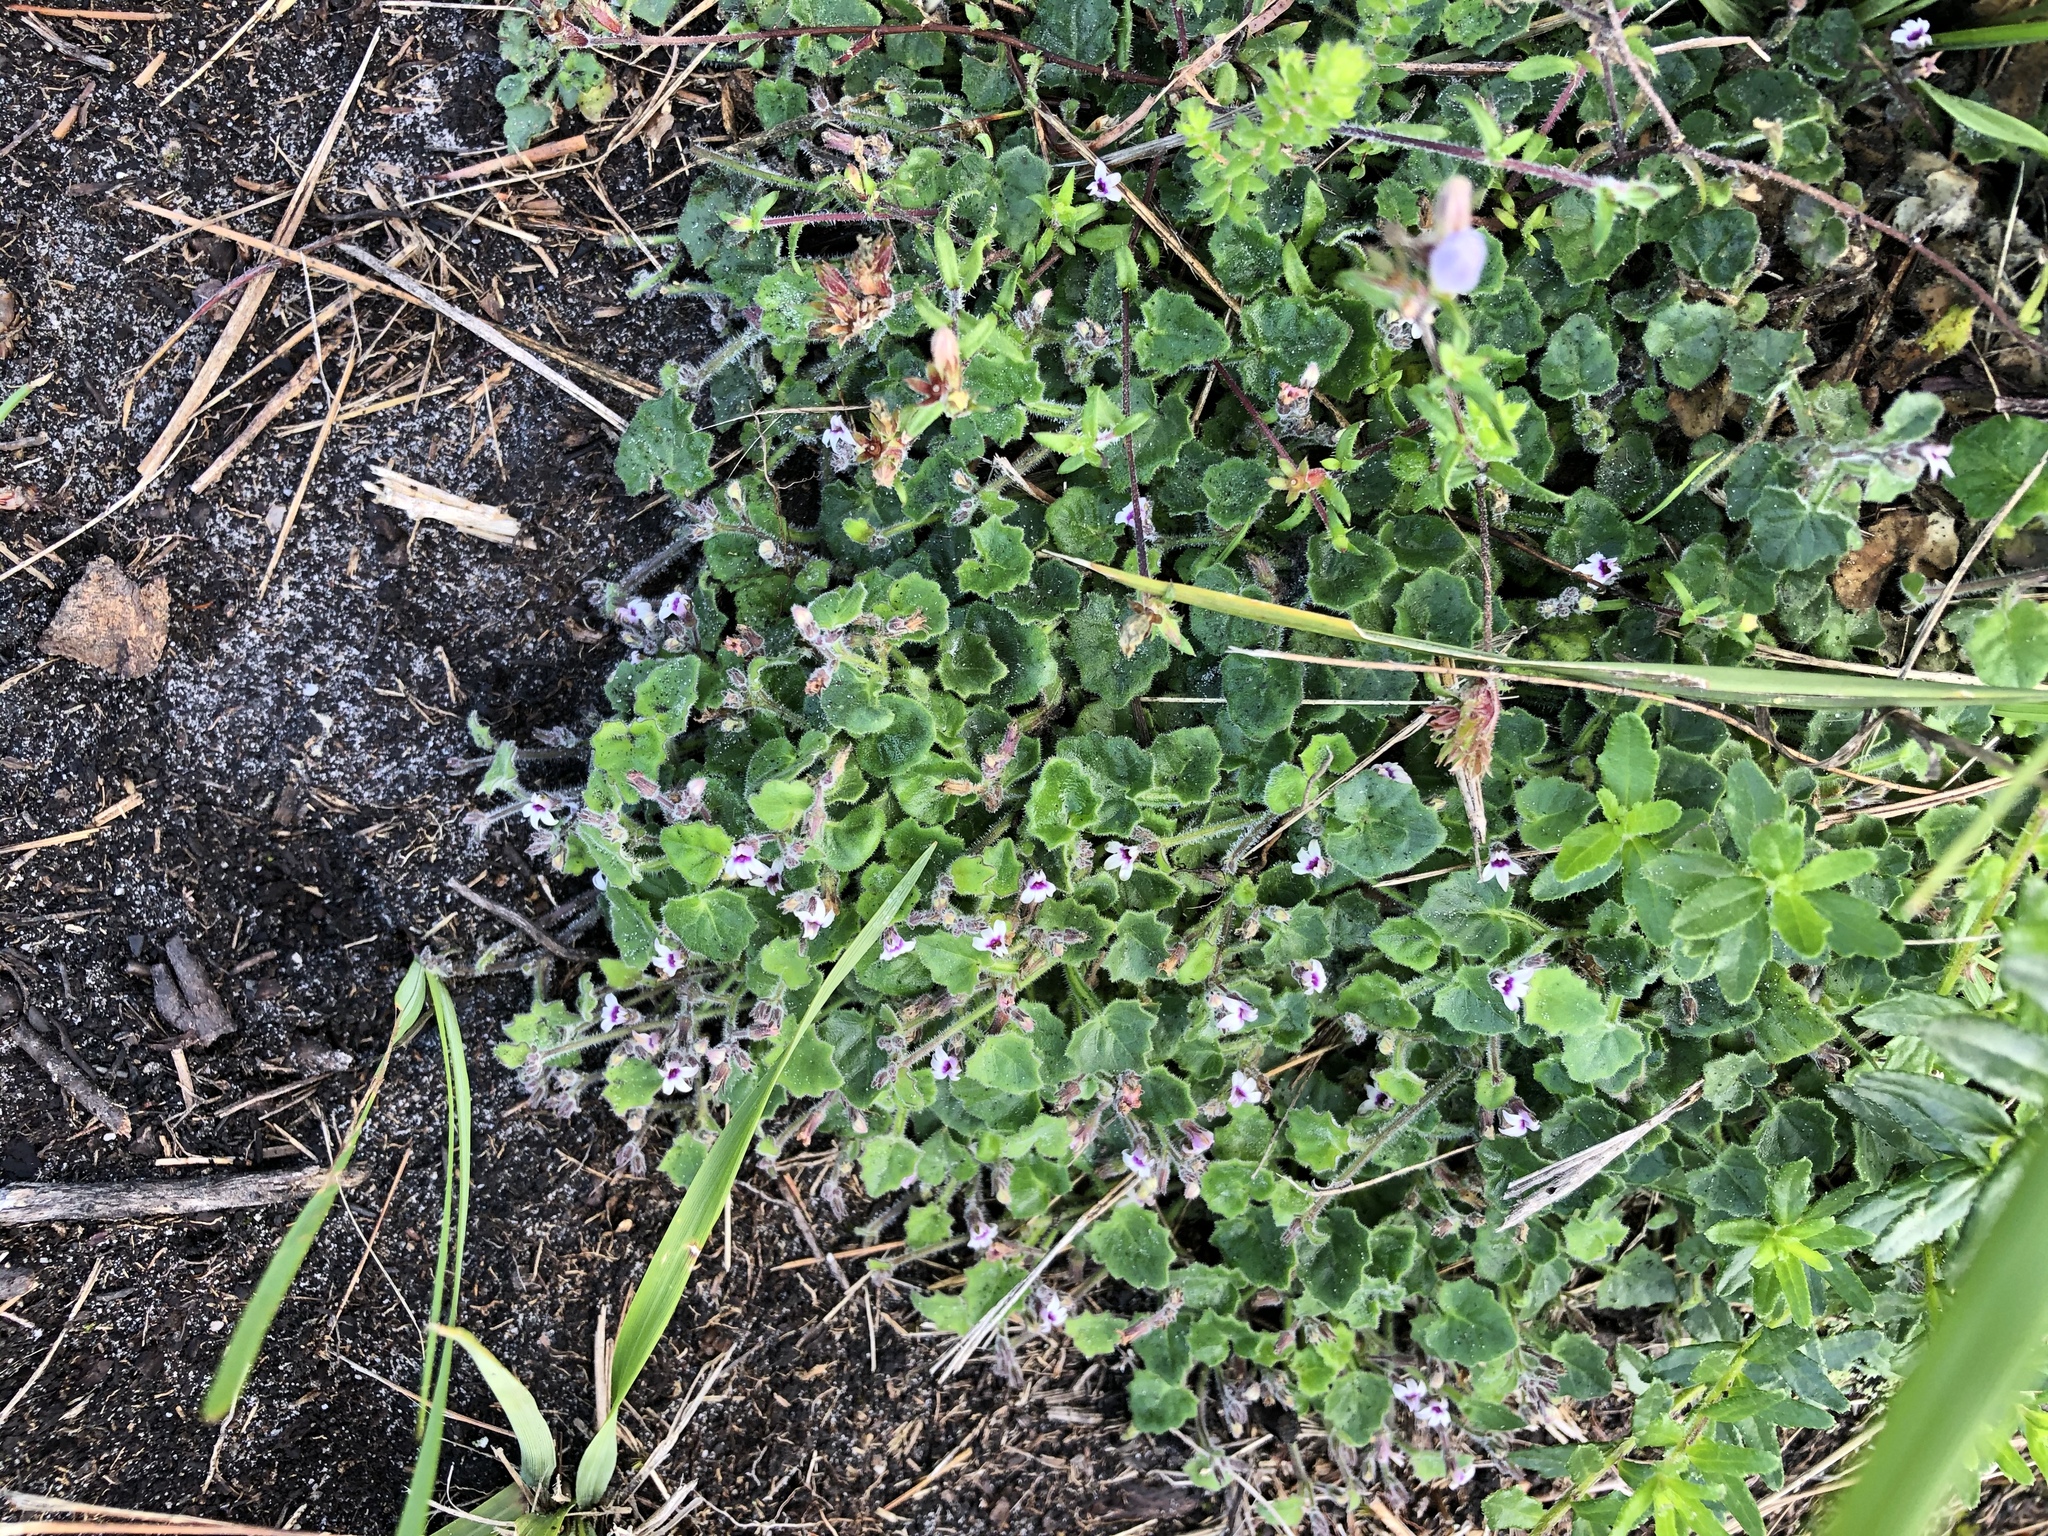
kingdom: Plantae
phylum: Tracheophyta
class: Magnoliopsida
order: Asterales
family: Campanulaceae
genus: Lobelia
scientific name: Lobelia ardisiandroides
